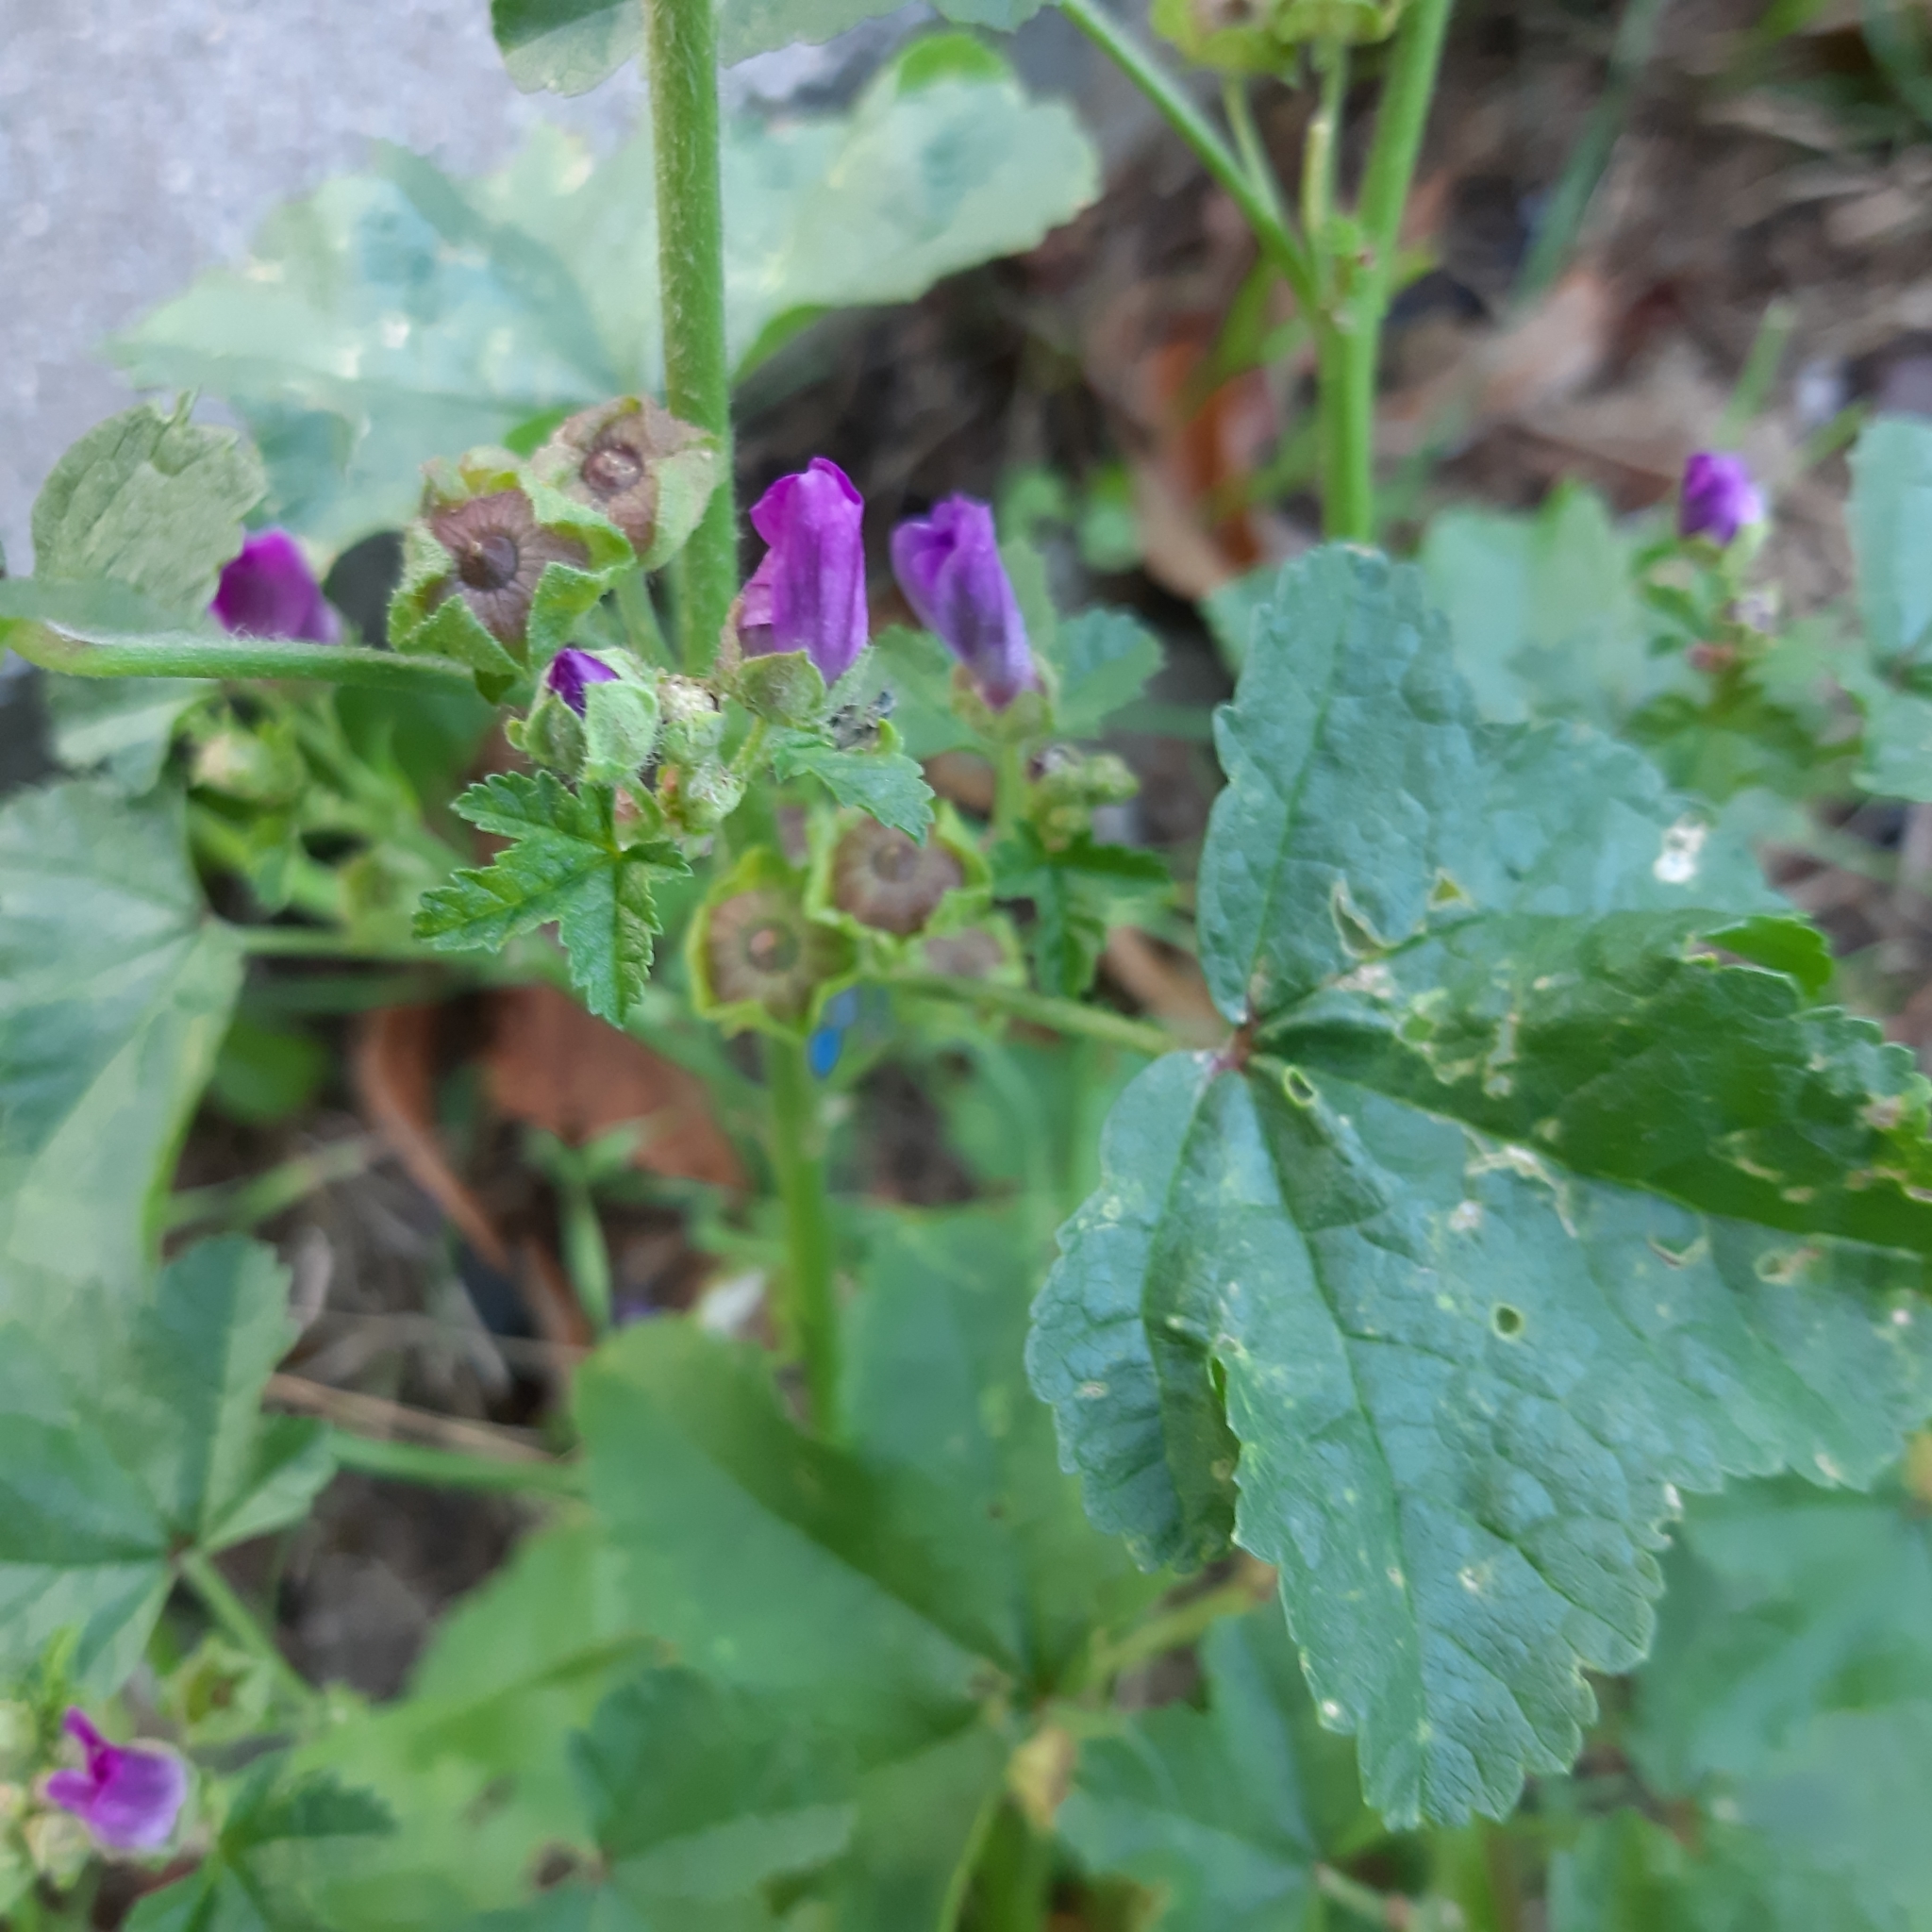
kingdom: Plantae
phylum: Tracheophyta
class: Magnoliopsida
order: Malvales
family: Malvaceae
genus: Malva
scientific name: Malva sylvestris
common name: Common mallow
